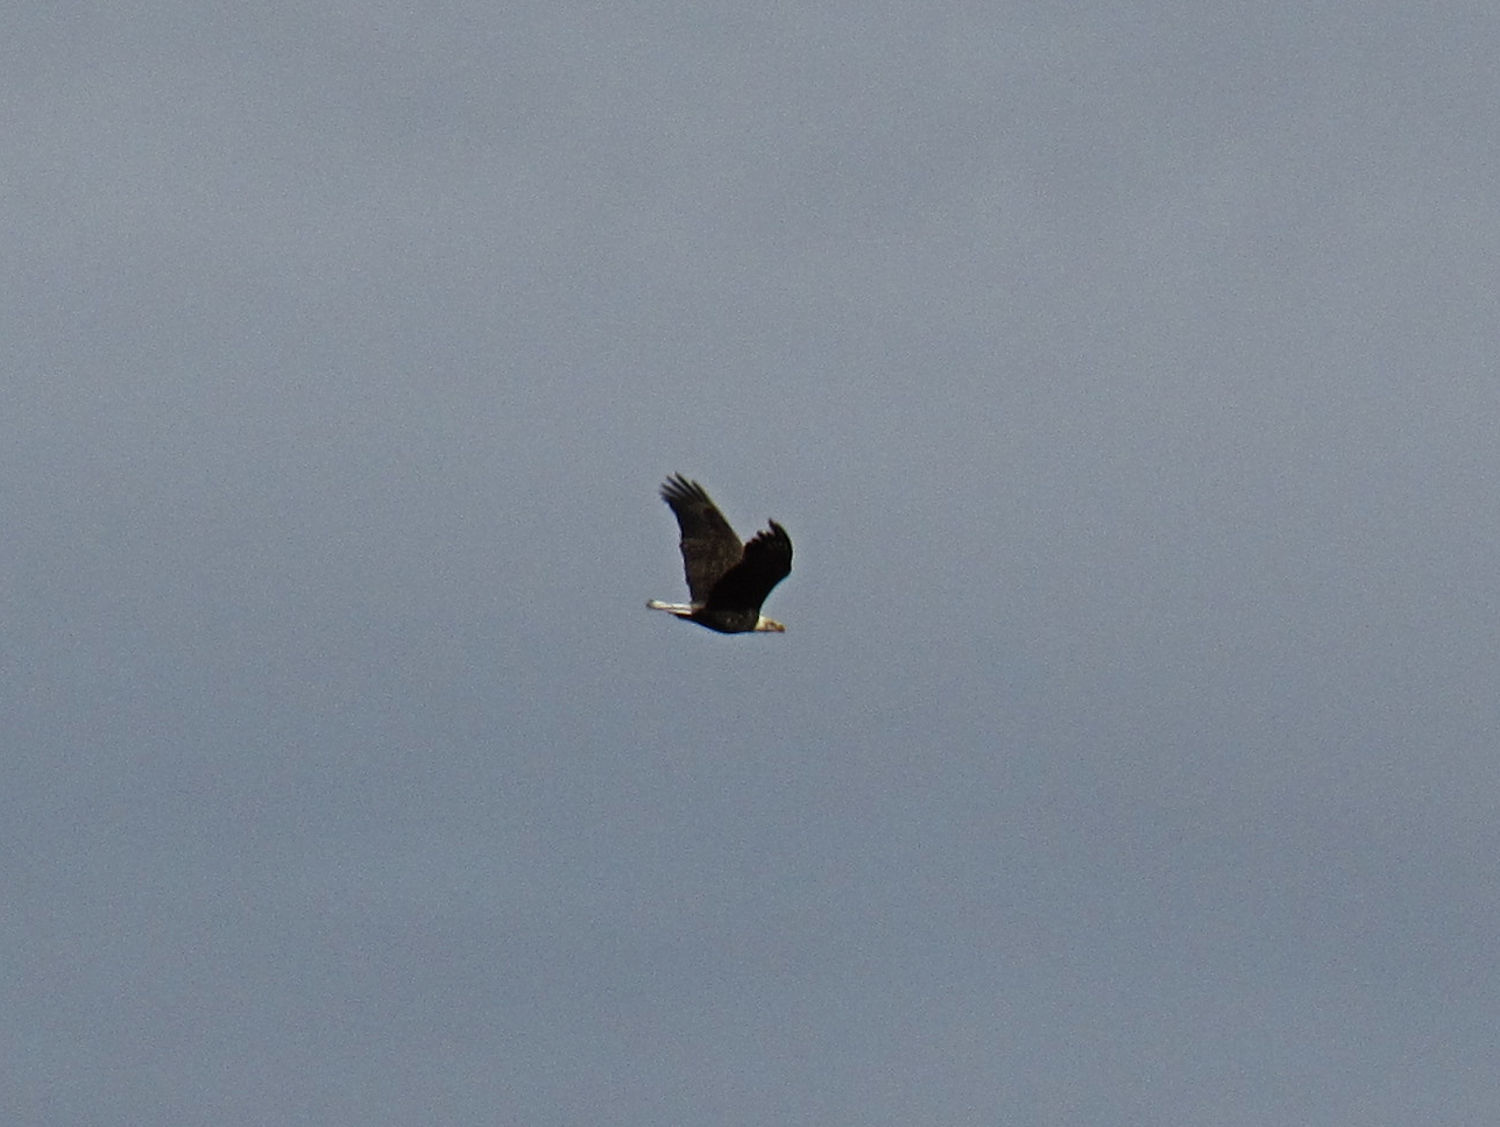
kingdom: Animalia
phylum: Chordata
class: Aves
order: Accipitriformes
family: Accipitridae
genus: Haliaeetus
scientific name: Haliaeetus leucocephalus
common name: Bald eagle
